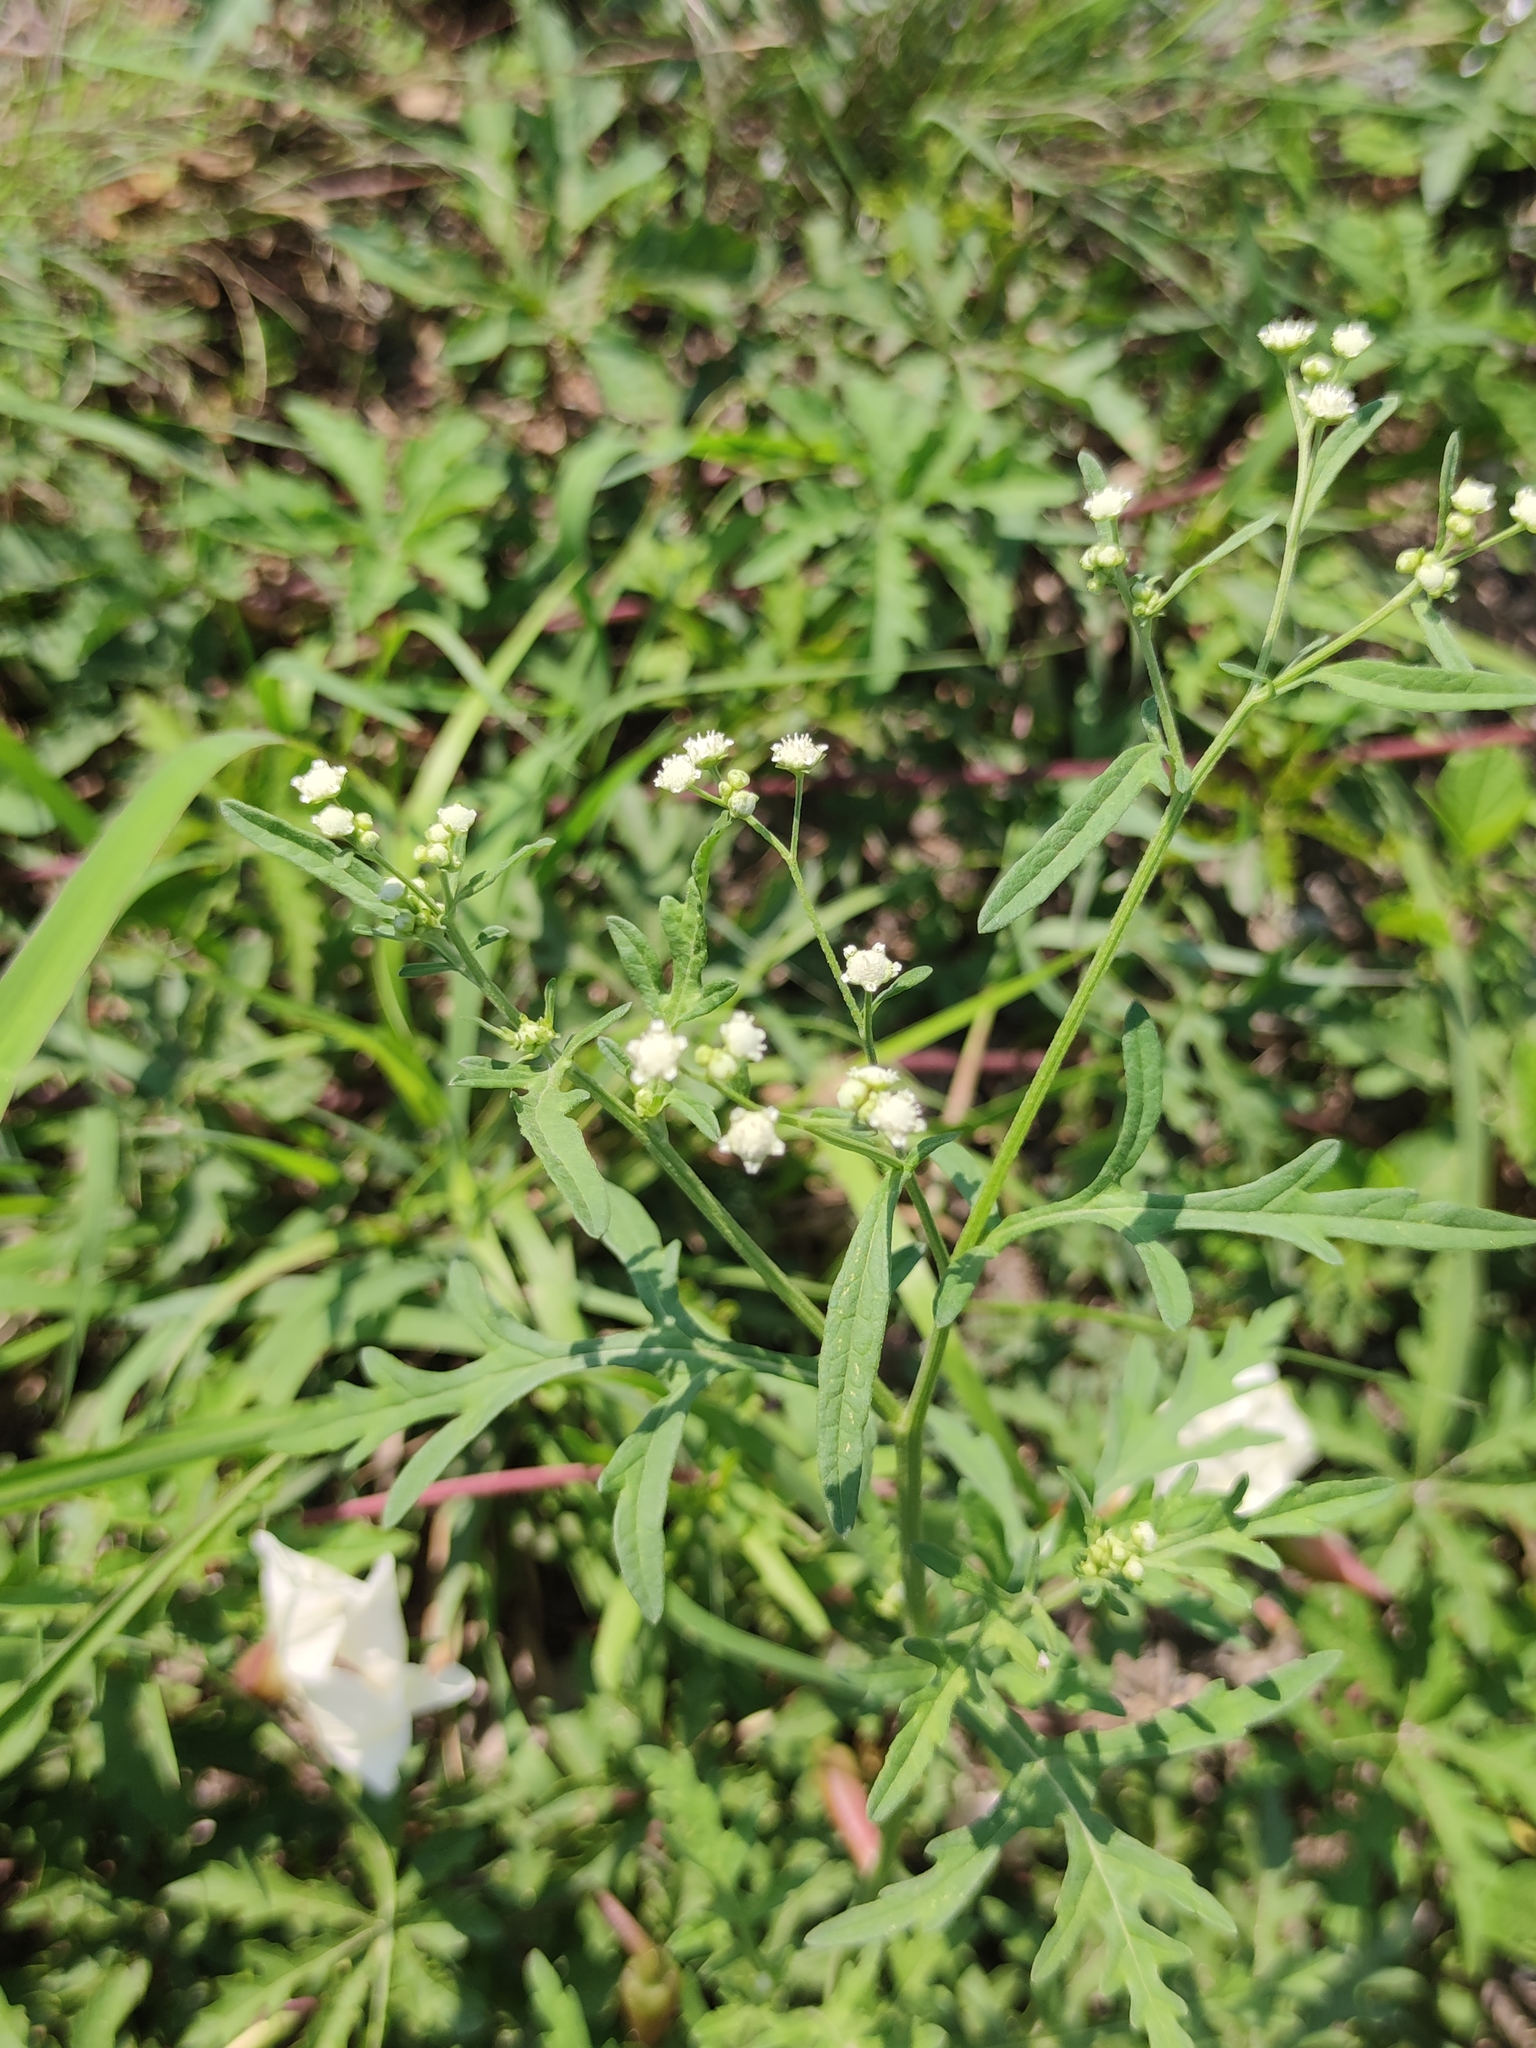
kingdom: Plantae
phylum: Tracheophyta
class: Magnoliopsida
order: Asterales
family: Asteraceae
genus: Parthenium
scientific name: Parthenium hysterophorus
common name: Santa maria feverfew
